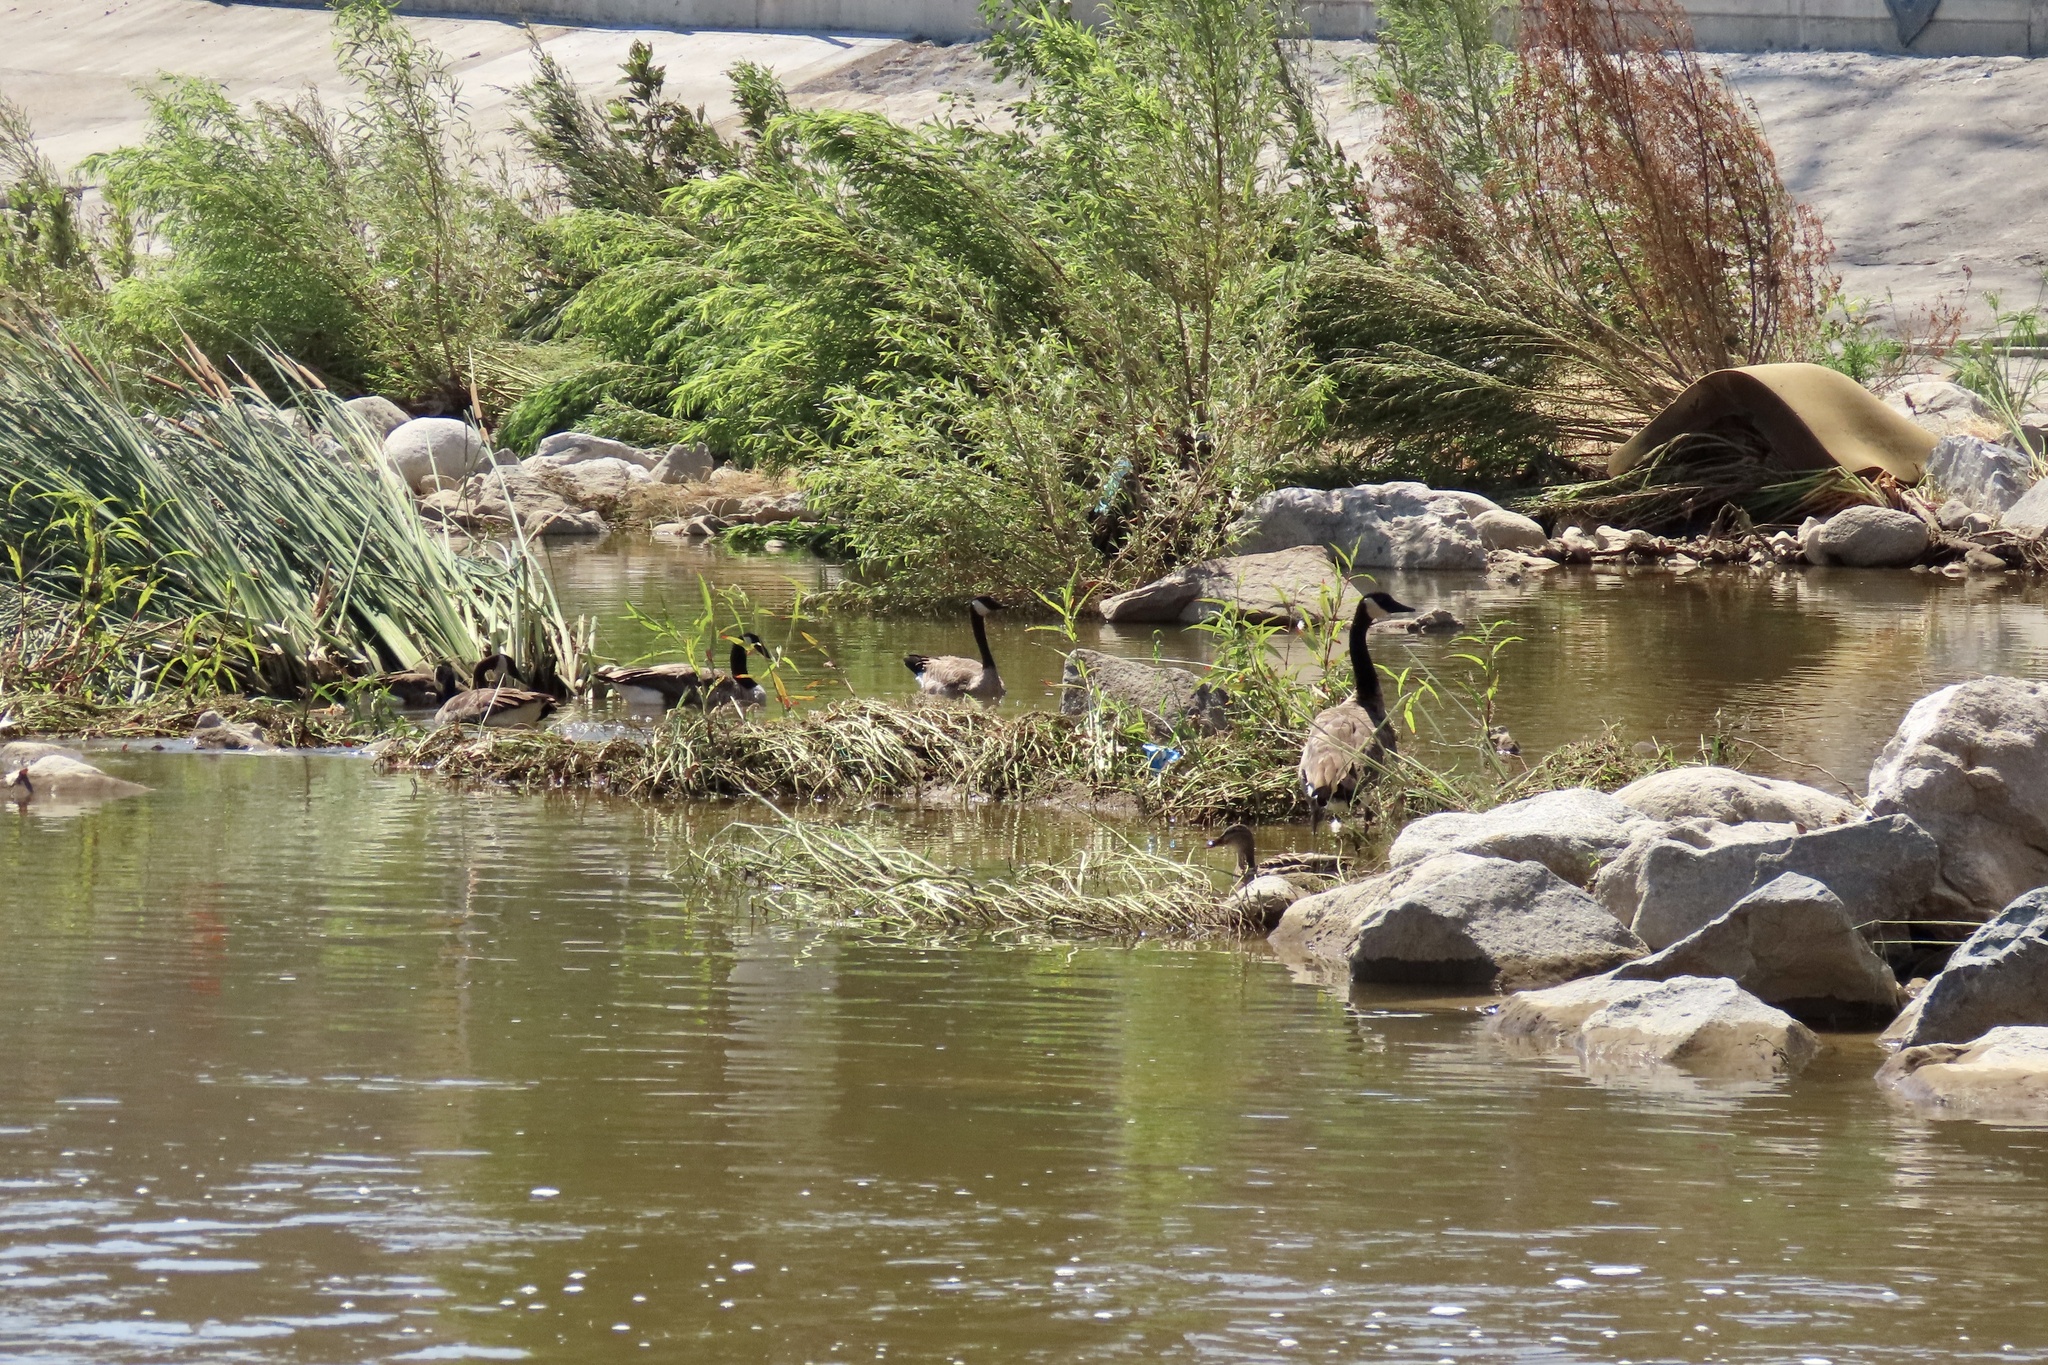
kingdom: Animalia
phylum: Chordata
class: Aves
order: Anseriformes
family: Anatidae
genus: Branta
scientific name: Branta canadensis
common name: Canada goose
